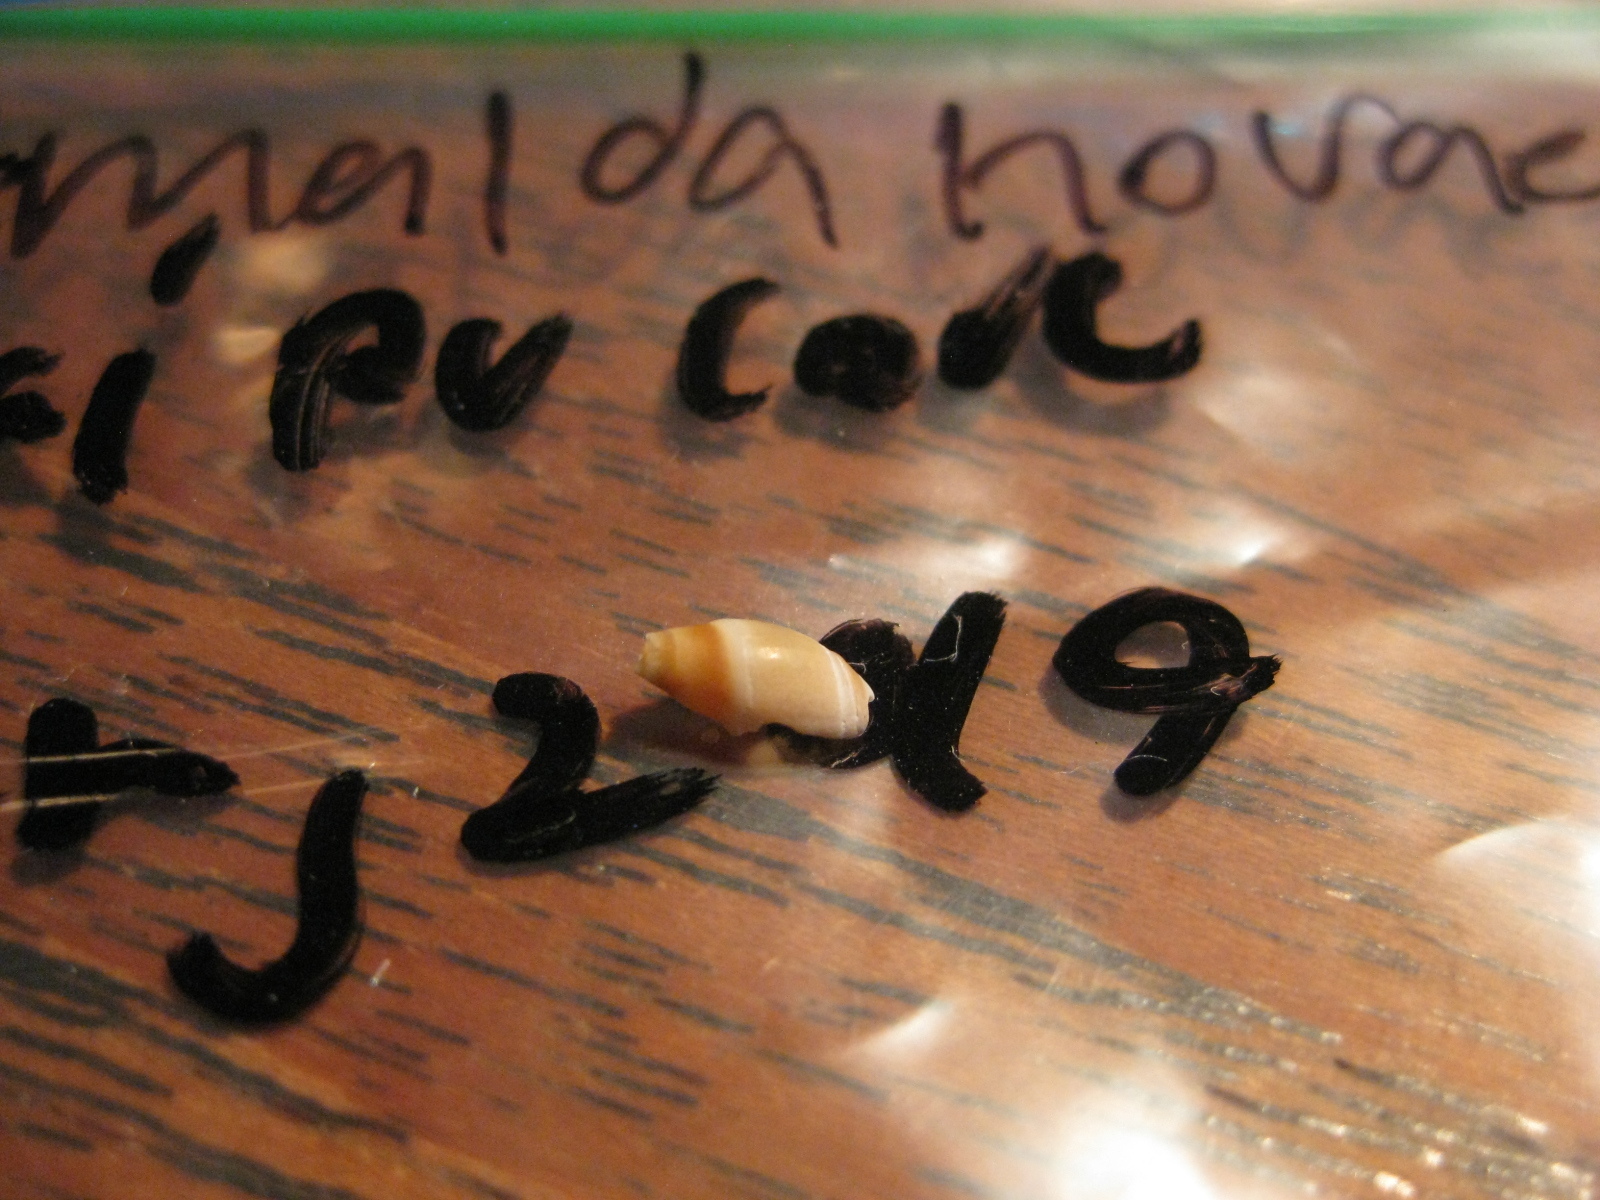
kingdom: Animalia
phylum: Mollusca
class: Gastropoda
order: Neogastropoda
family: Ancillariidae
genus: Amalda
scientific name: Amalda novaezelandiae
